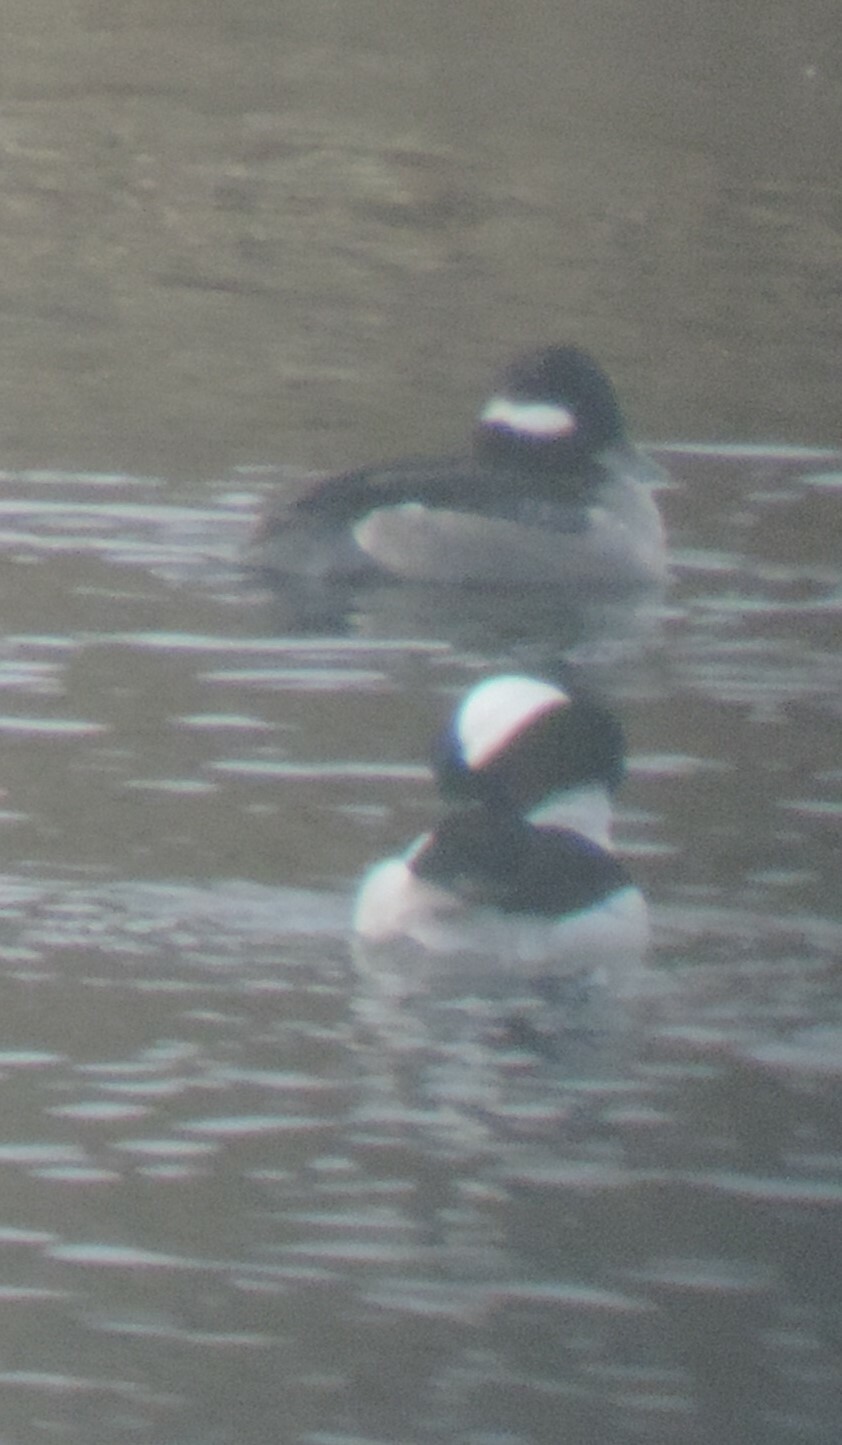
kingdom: Animalia
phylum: Chordata
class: Aves
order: Anseriformes
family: Anatidae
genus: Bucephala
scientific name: Bucephala albeola
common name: Bufflehead
